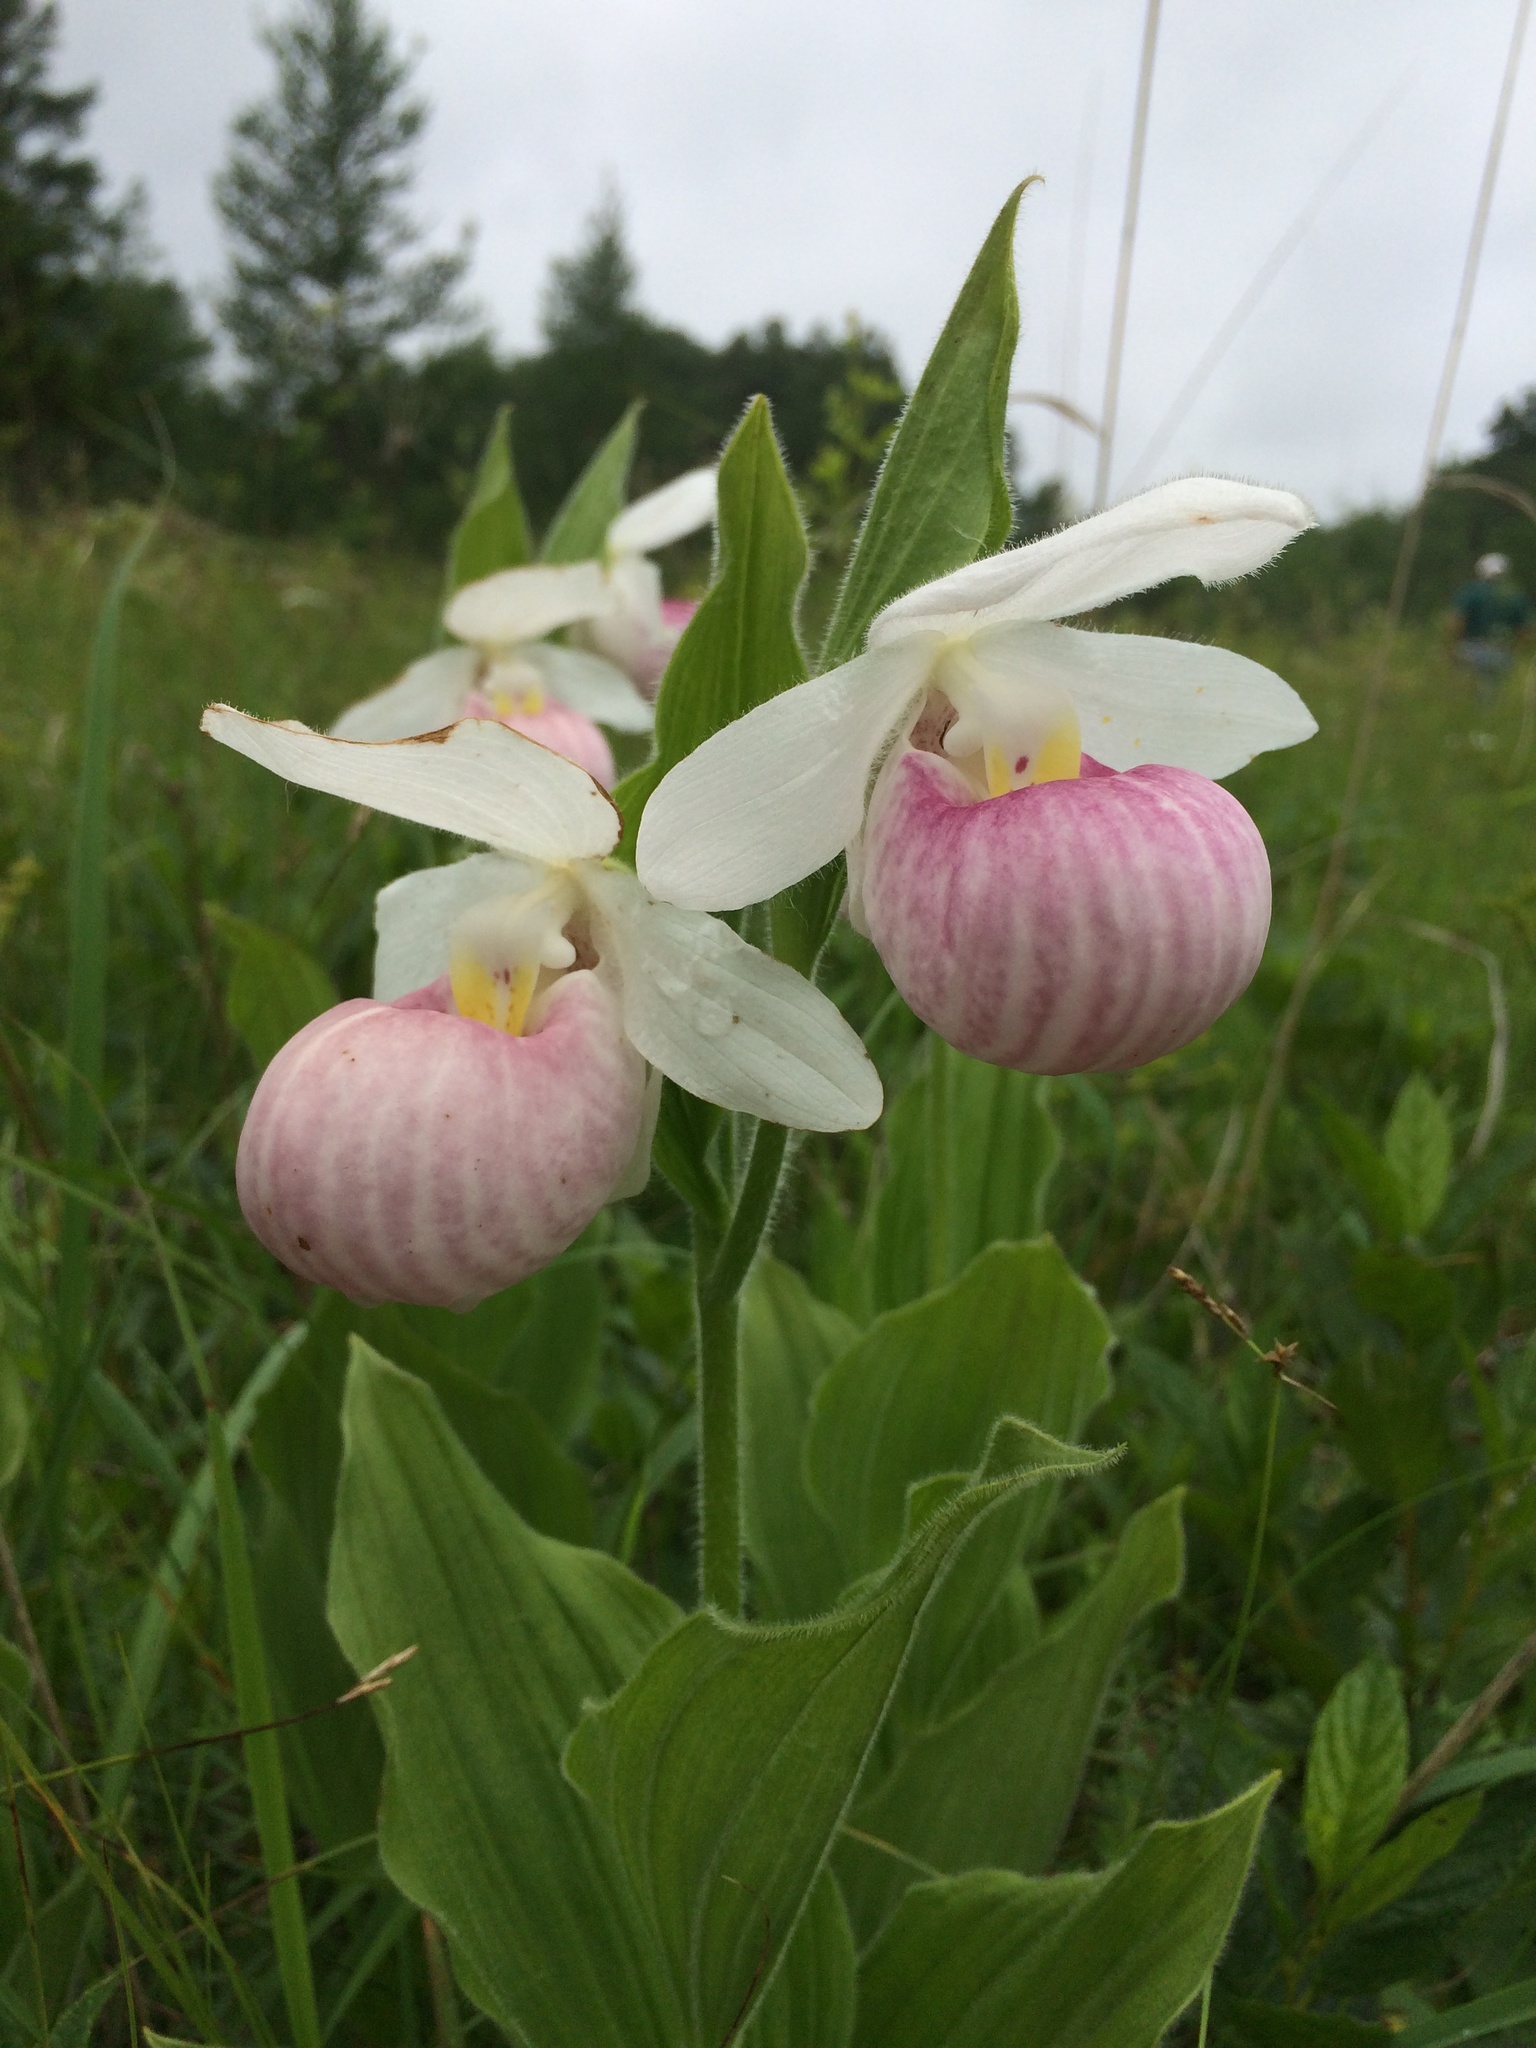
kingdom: Plantae
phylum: Tracheophyta
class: Liliopsida
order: Asparagales
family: Orchidaceae
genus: Cypripedium
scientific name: Cypripedium reginae
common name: Queen lady's-slipper
